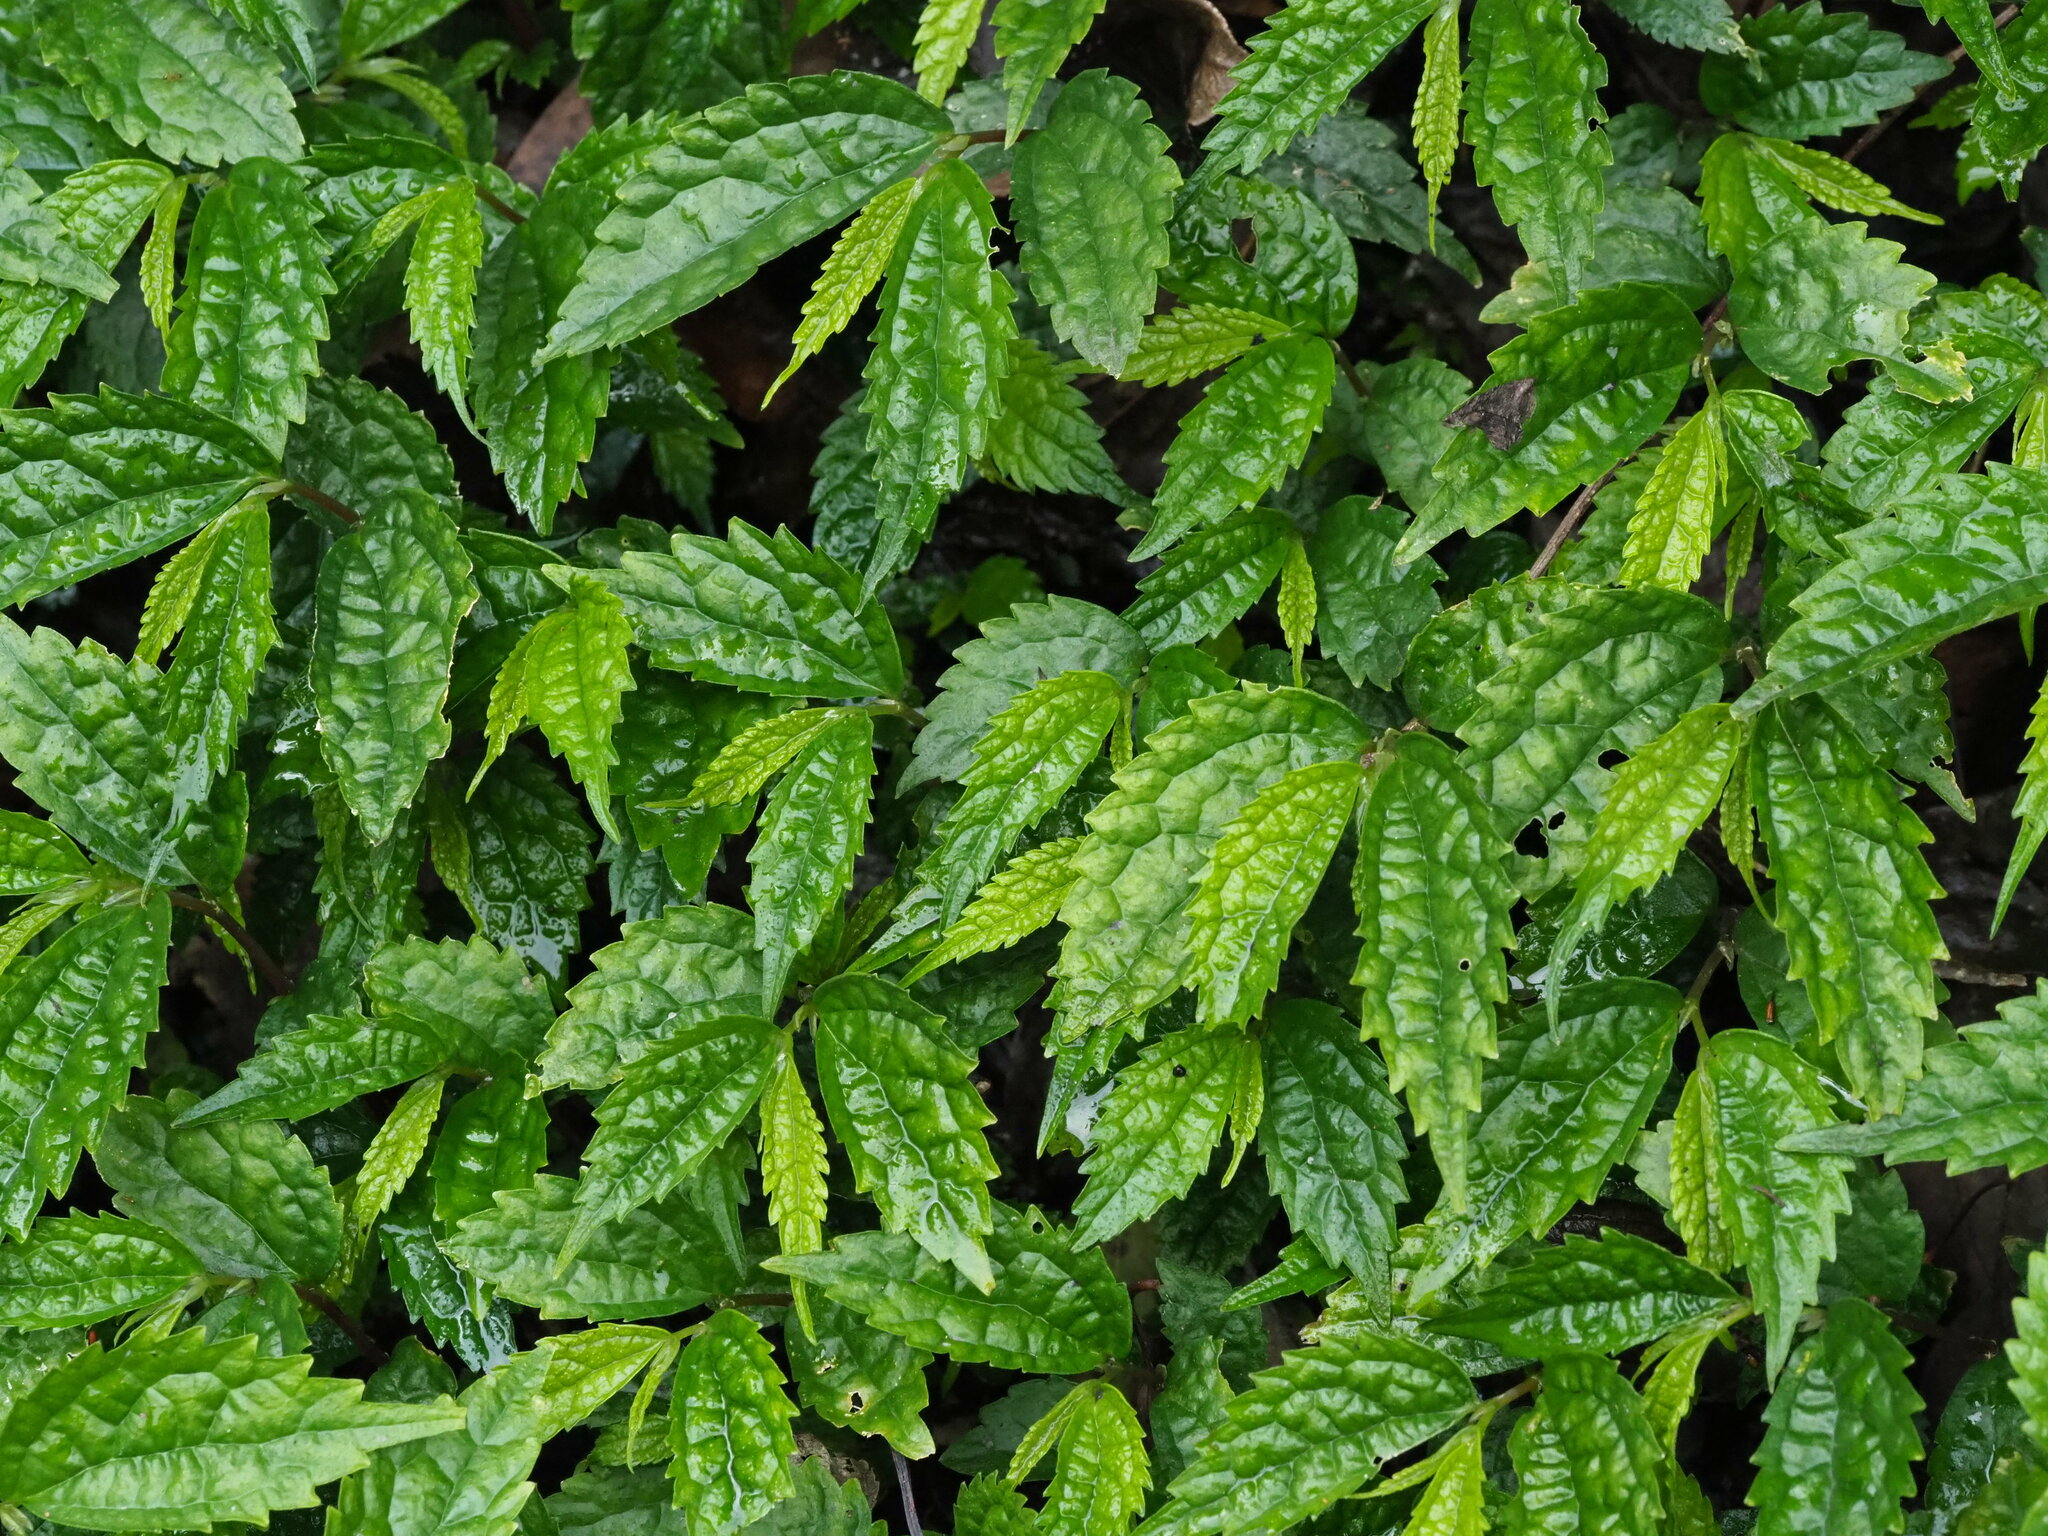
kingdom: Plantae
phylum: Tracheophyta
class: Magnoliopsida
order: Rosales
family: Urticaceae
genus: Elatostema
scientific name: Elatostema cyrtandrifolium
